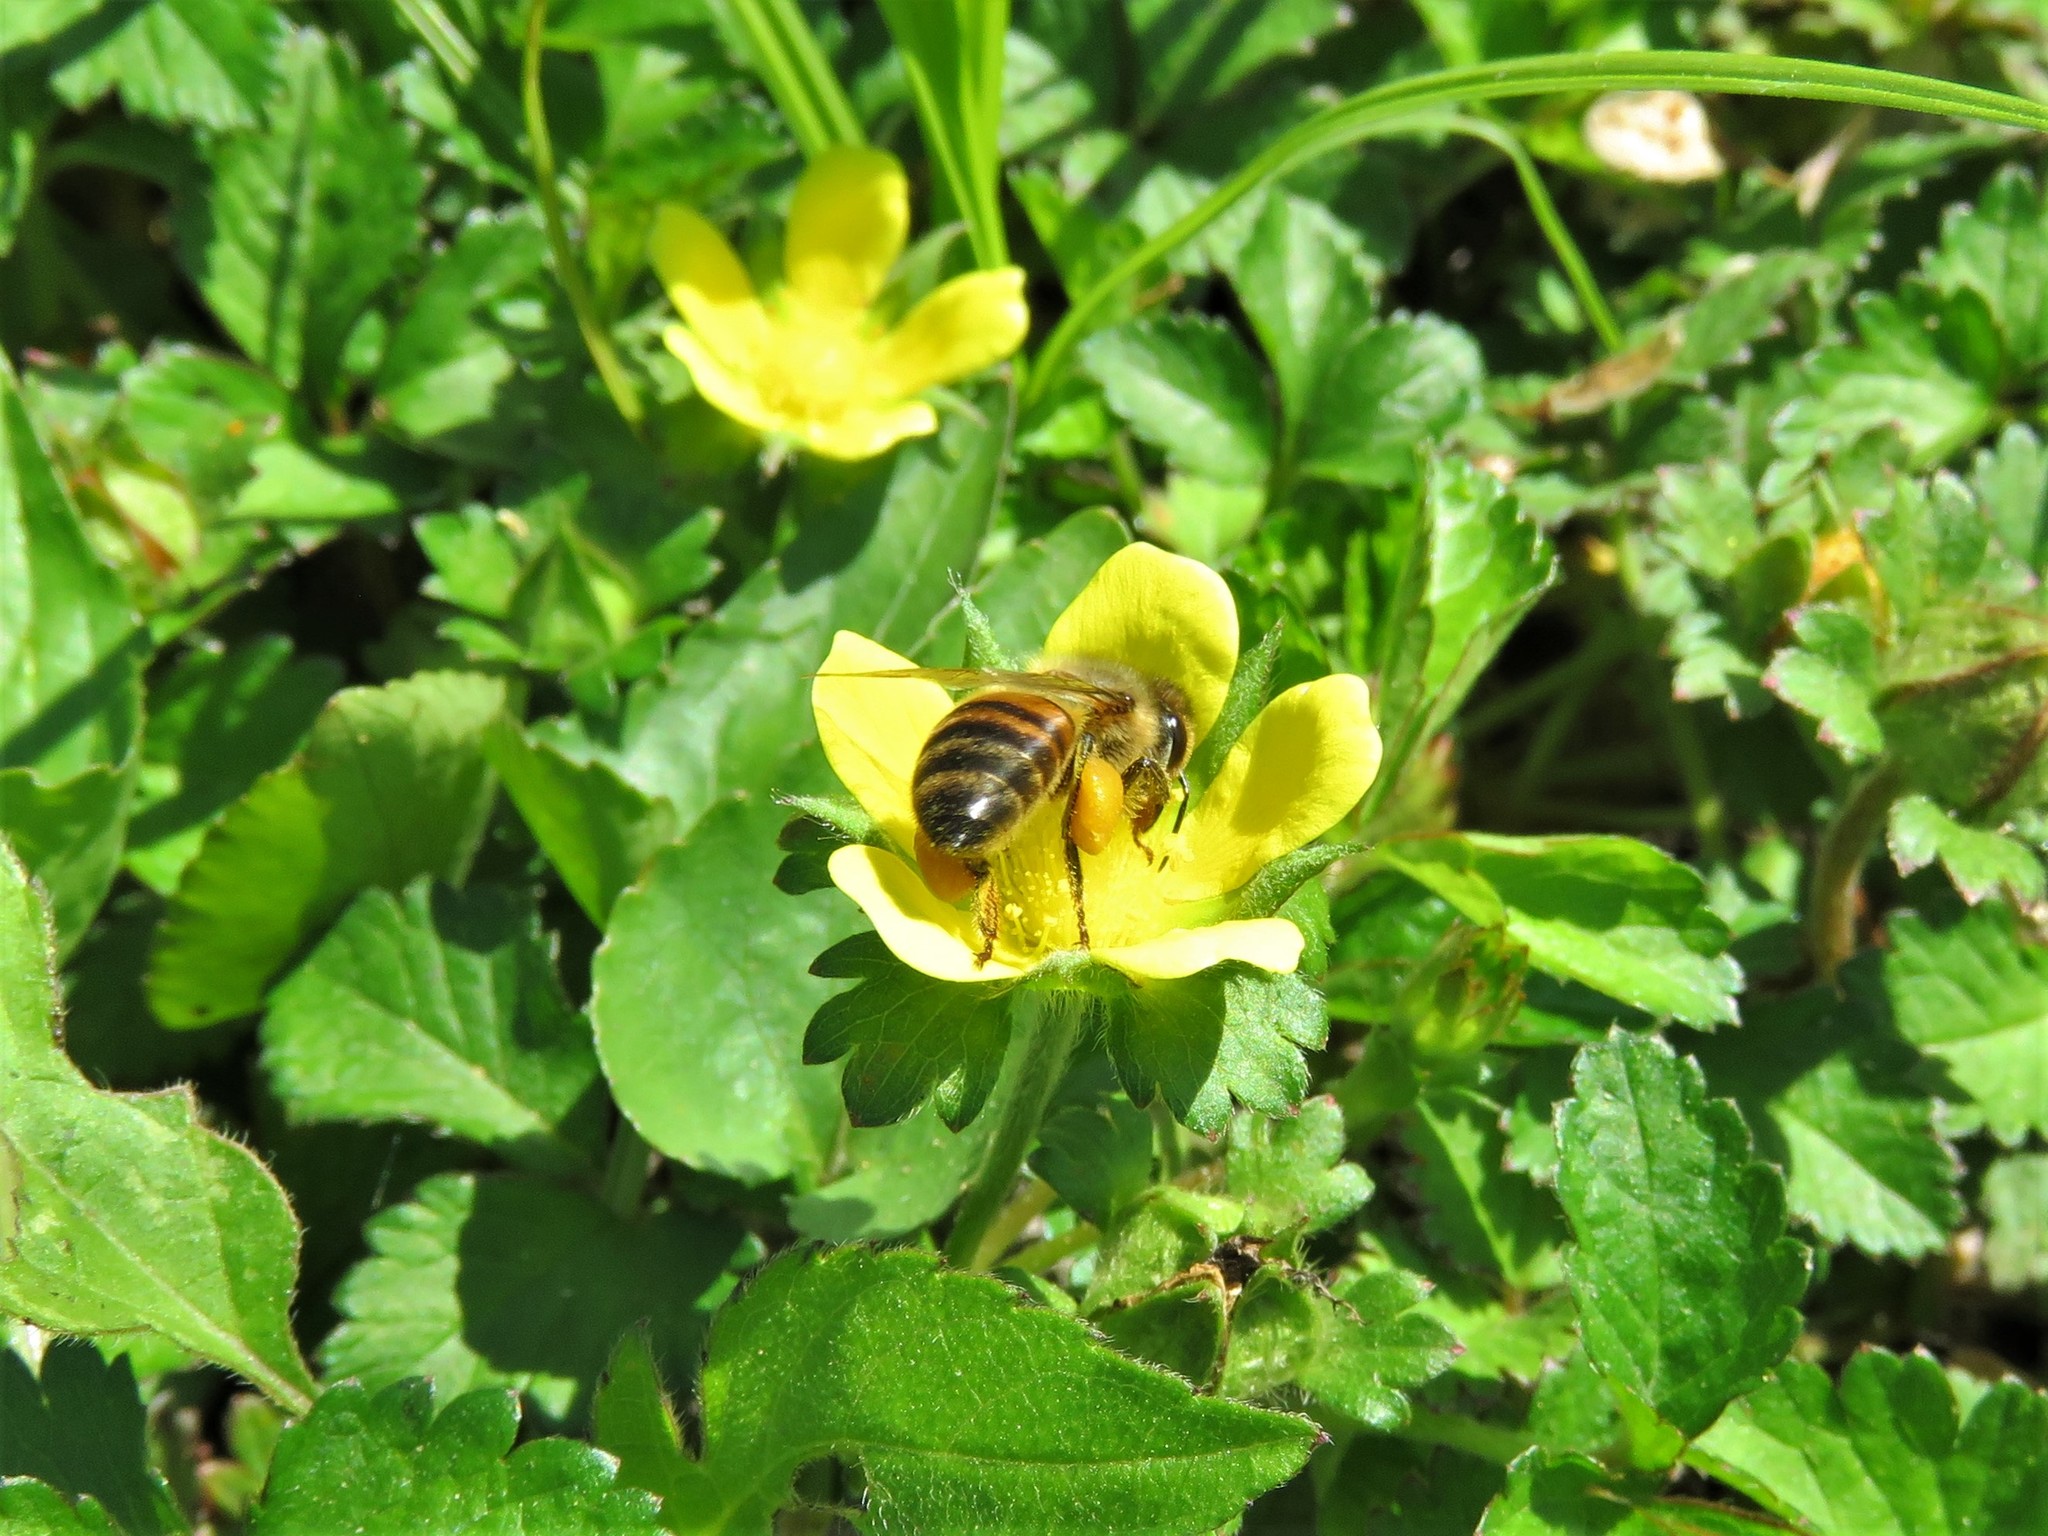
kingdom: Animalia
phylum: Arthropoda
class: Insecta
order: Hymenoptera
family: Apidae
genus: Apis
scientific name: Apis mellifera
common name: Honey bee
